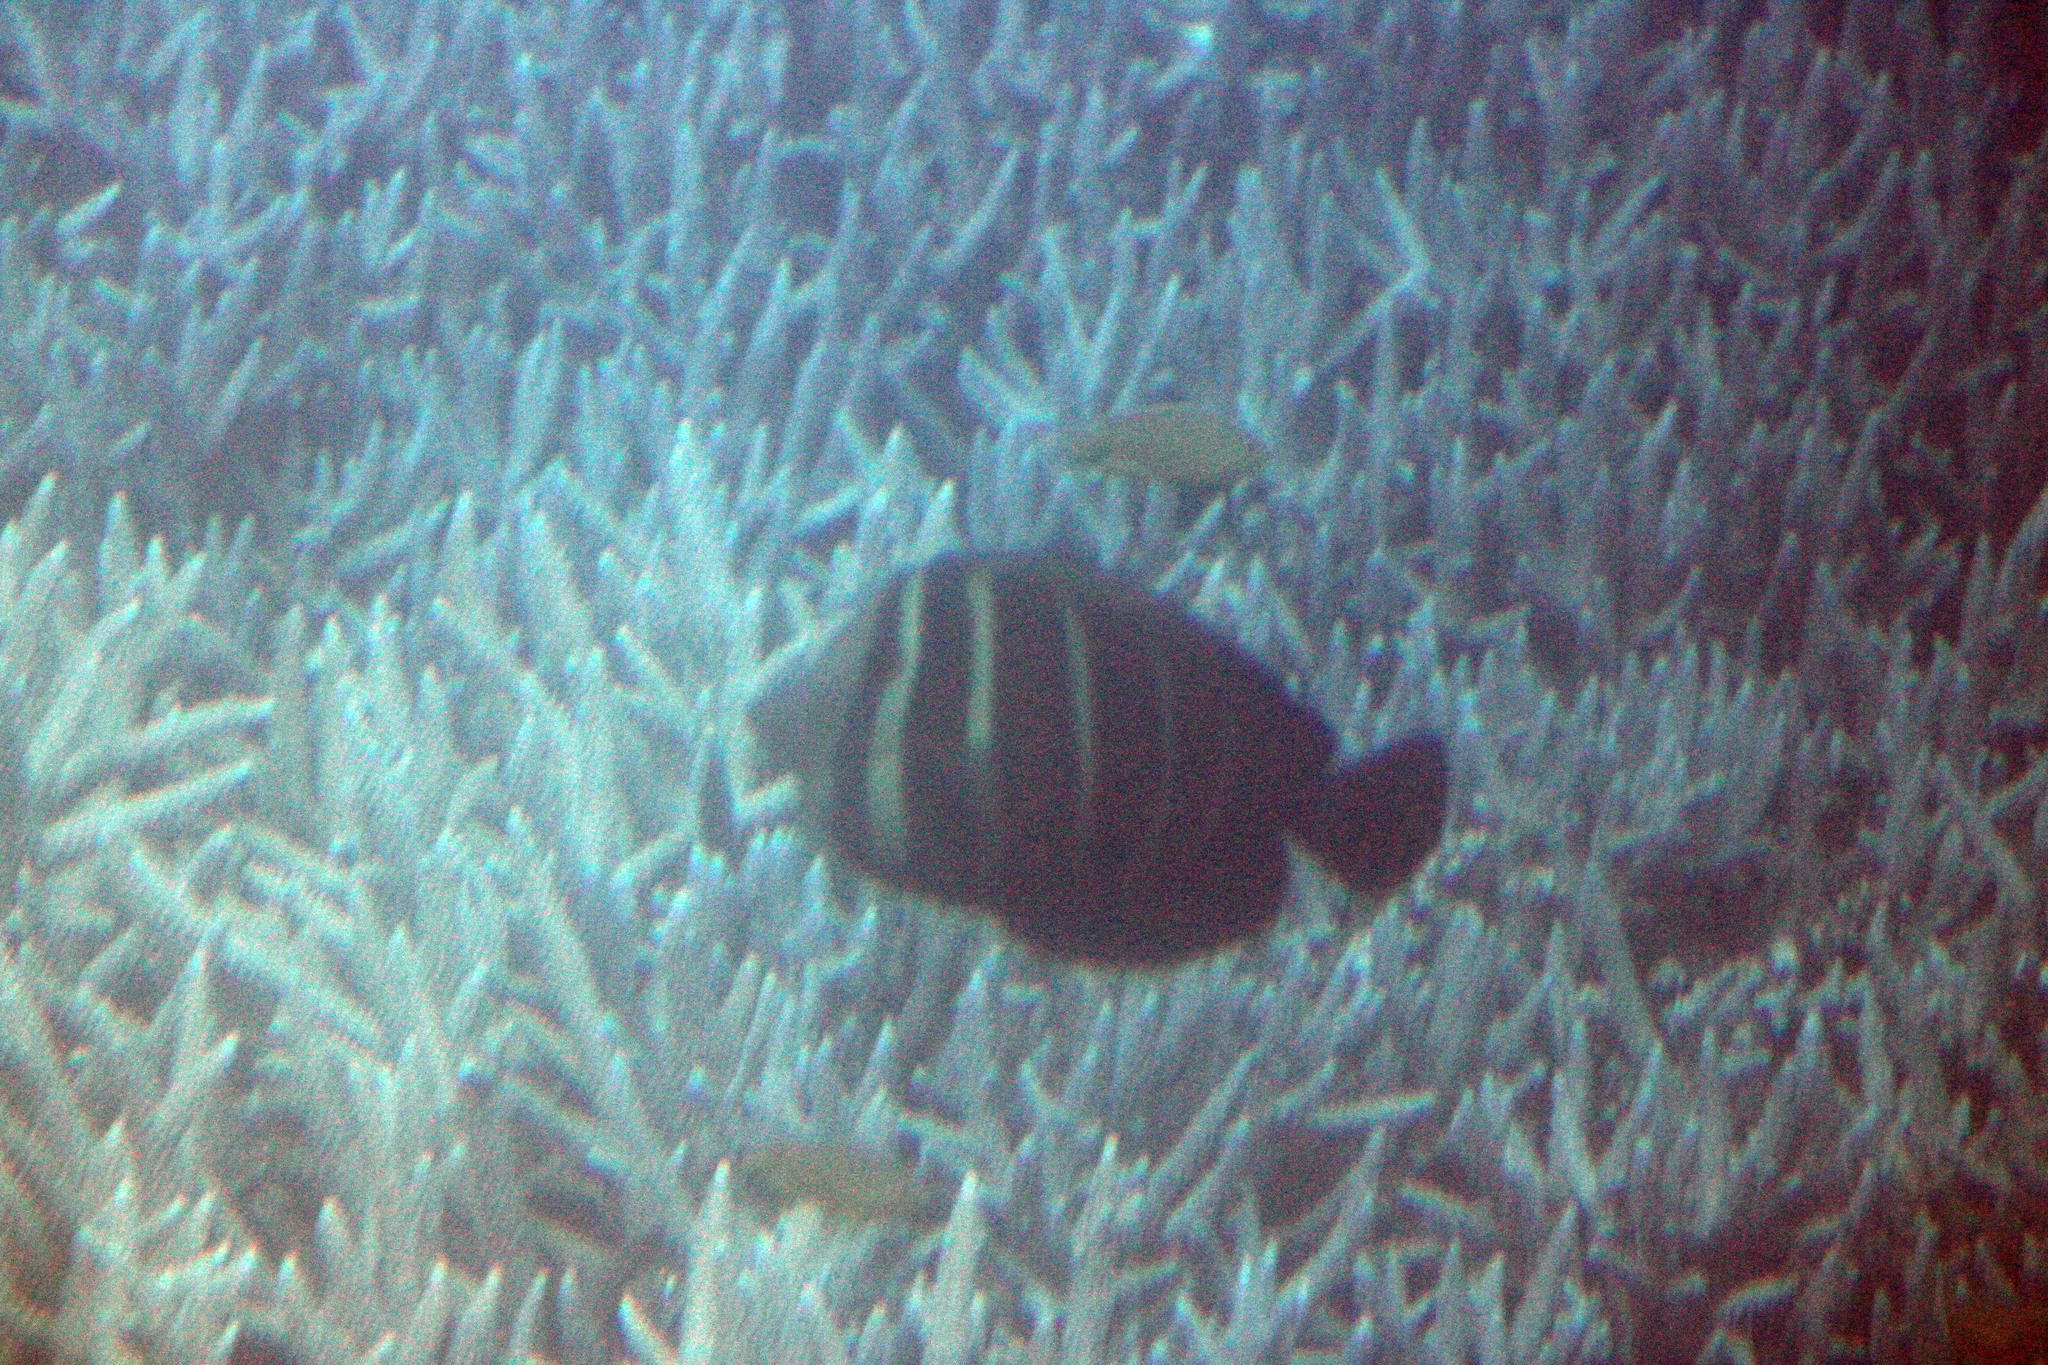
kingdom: Animalia
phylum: Chordata
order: Perciformes
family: Acanthuridae
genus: Zebrasoma
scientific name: Zebrasoma veliferum
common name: Sailfin surgeonfish
